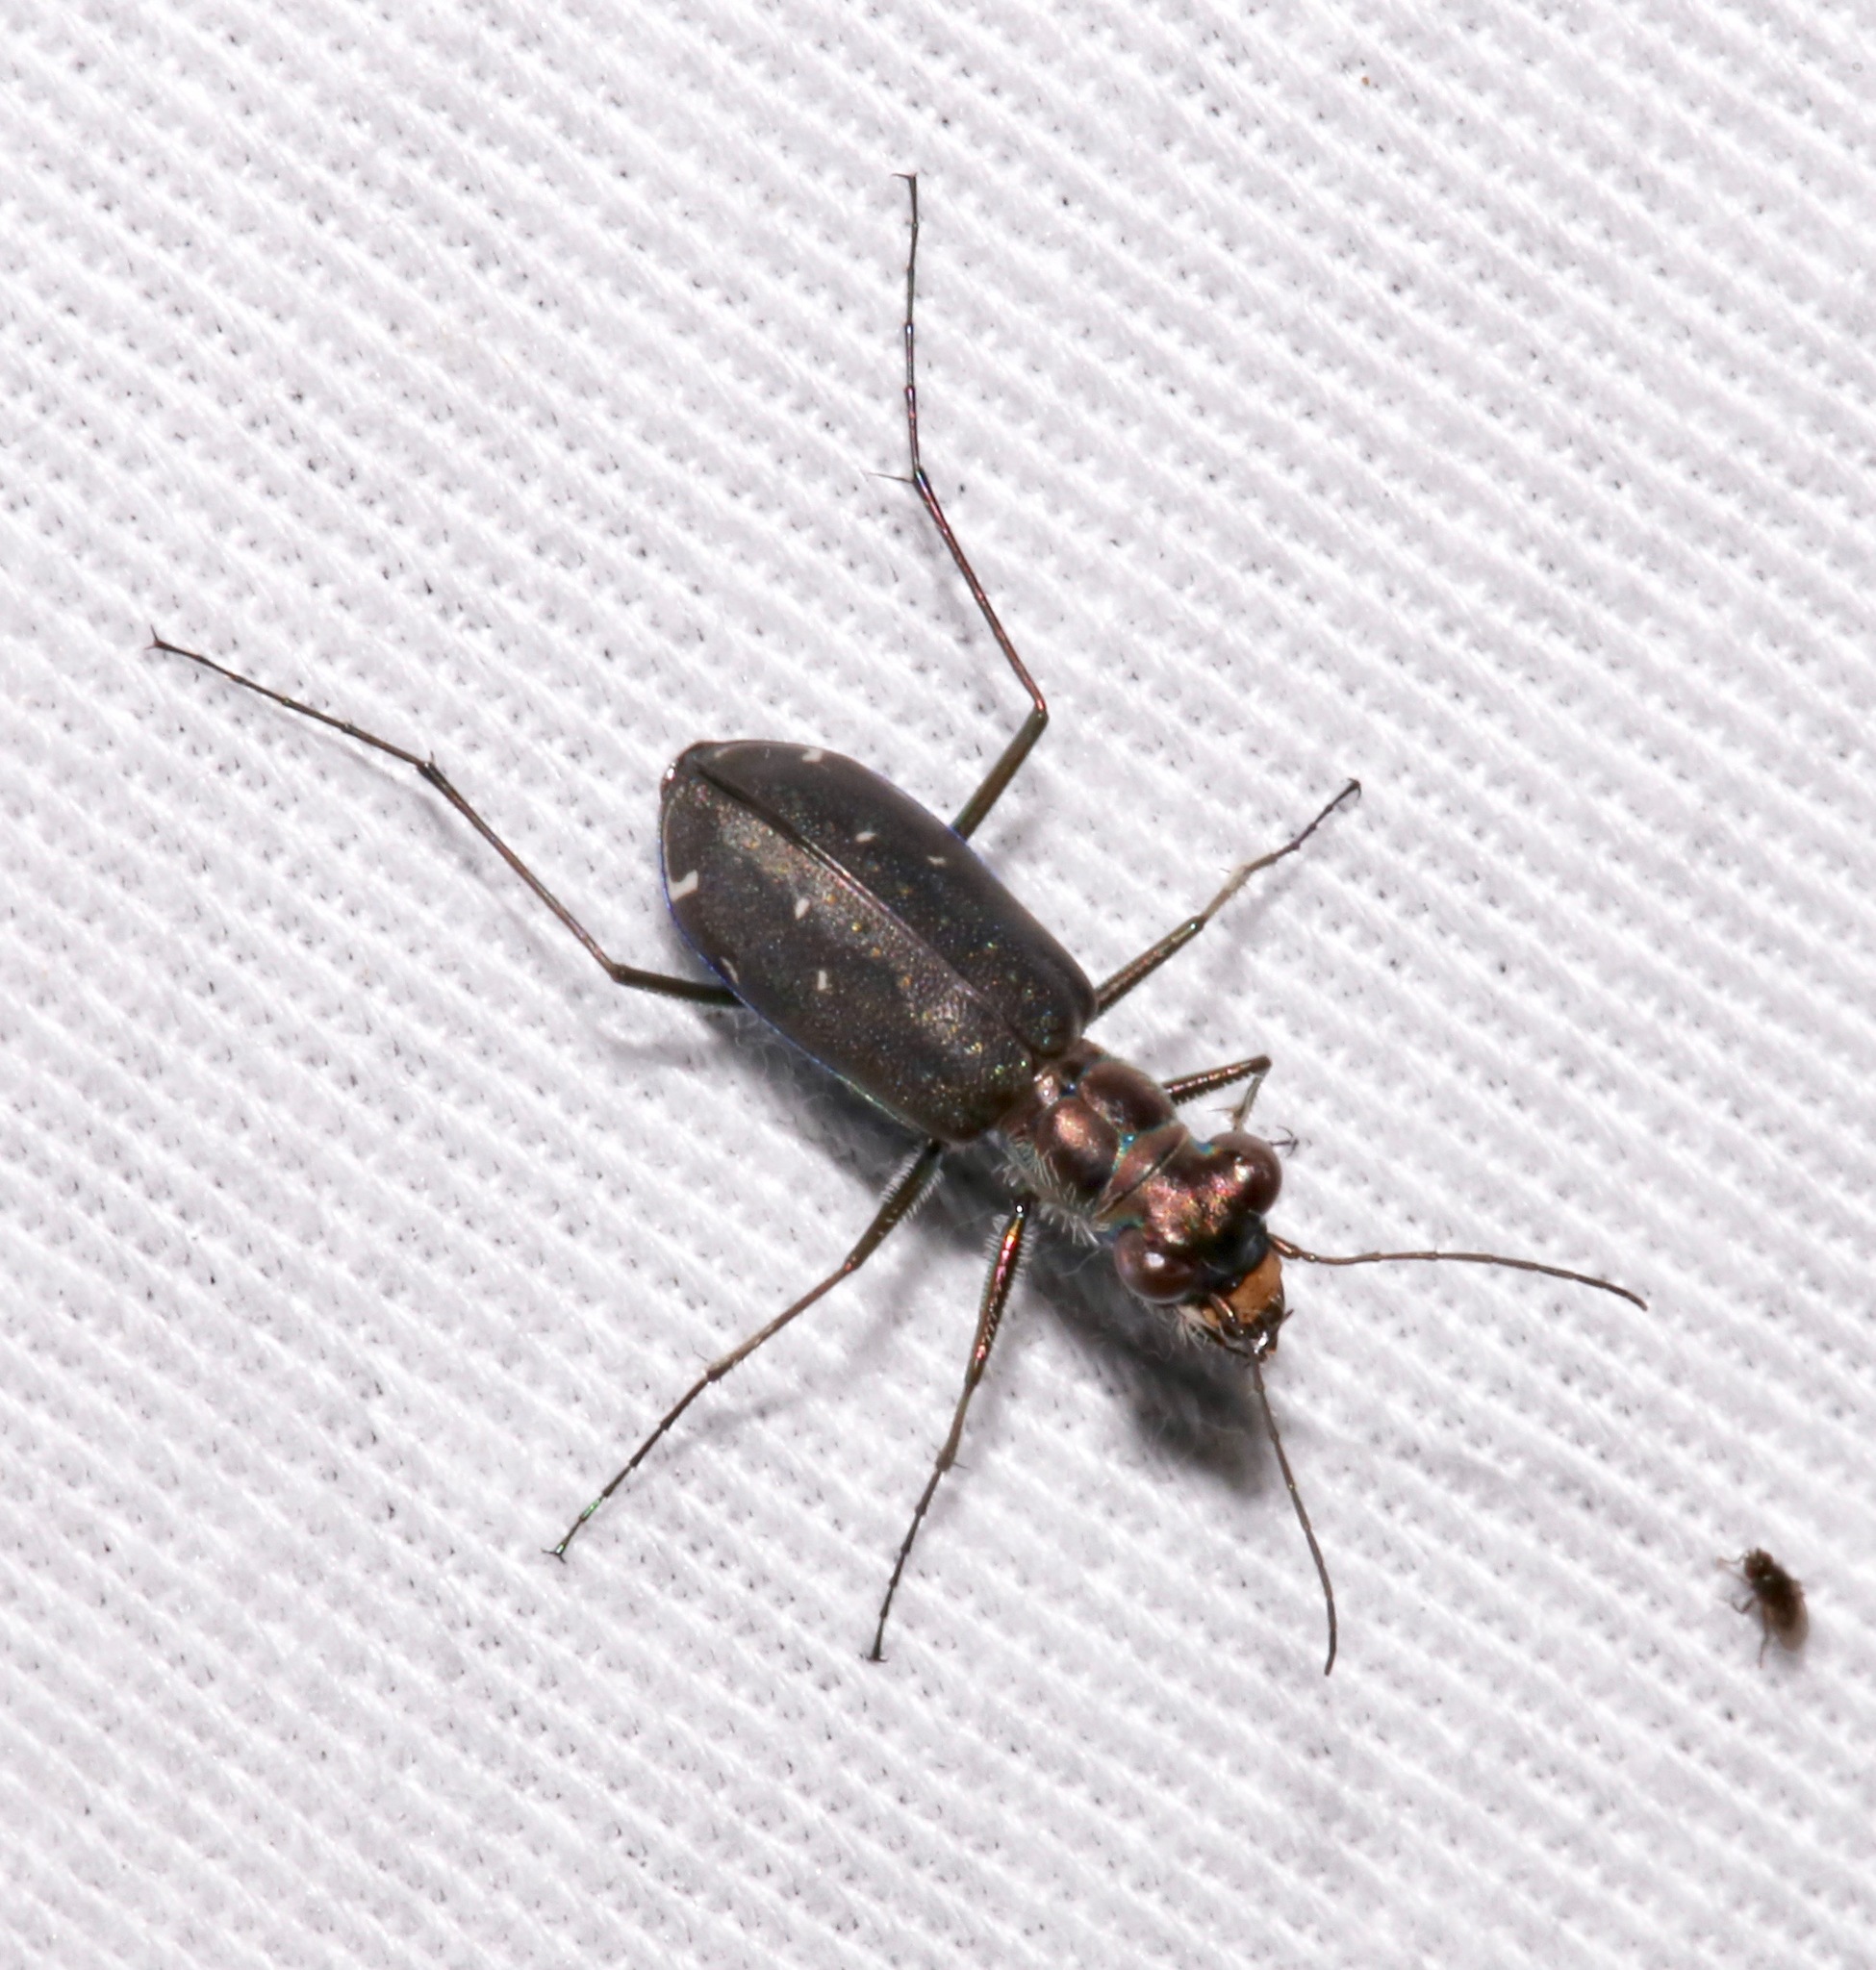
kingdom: Animalia
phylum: Arthropoda
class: Insecta
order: Coleoptera
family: Carabidae
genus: Cicindela
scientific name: Cicindela punctulata
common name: Punctured tiger beetle
